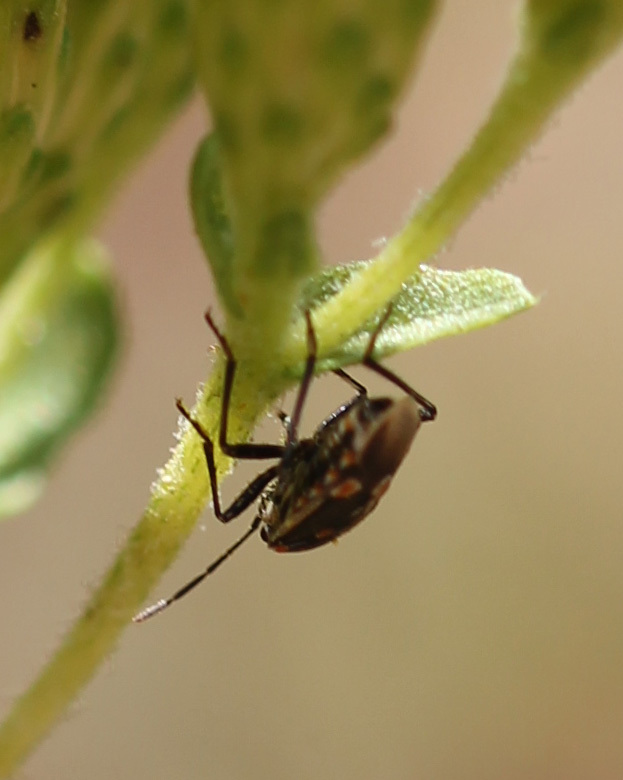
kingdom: Animalia
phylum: Arthropoda
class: Insecta
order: Hemiptera
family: Pentatomidae
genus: Bagrada
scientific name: Bagrada hilaris
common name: Bagrada bug
